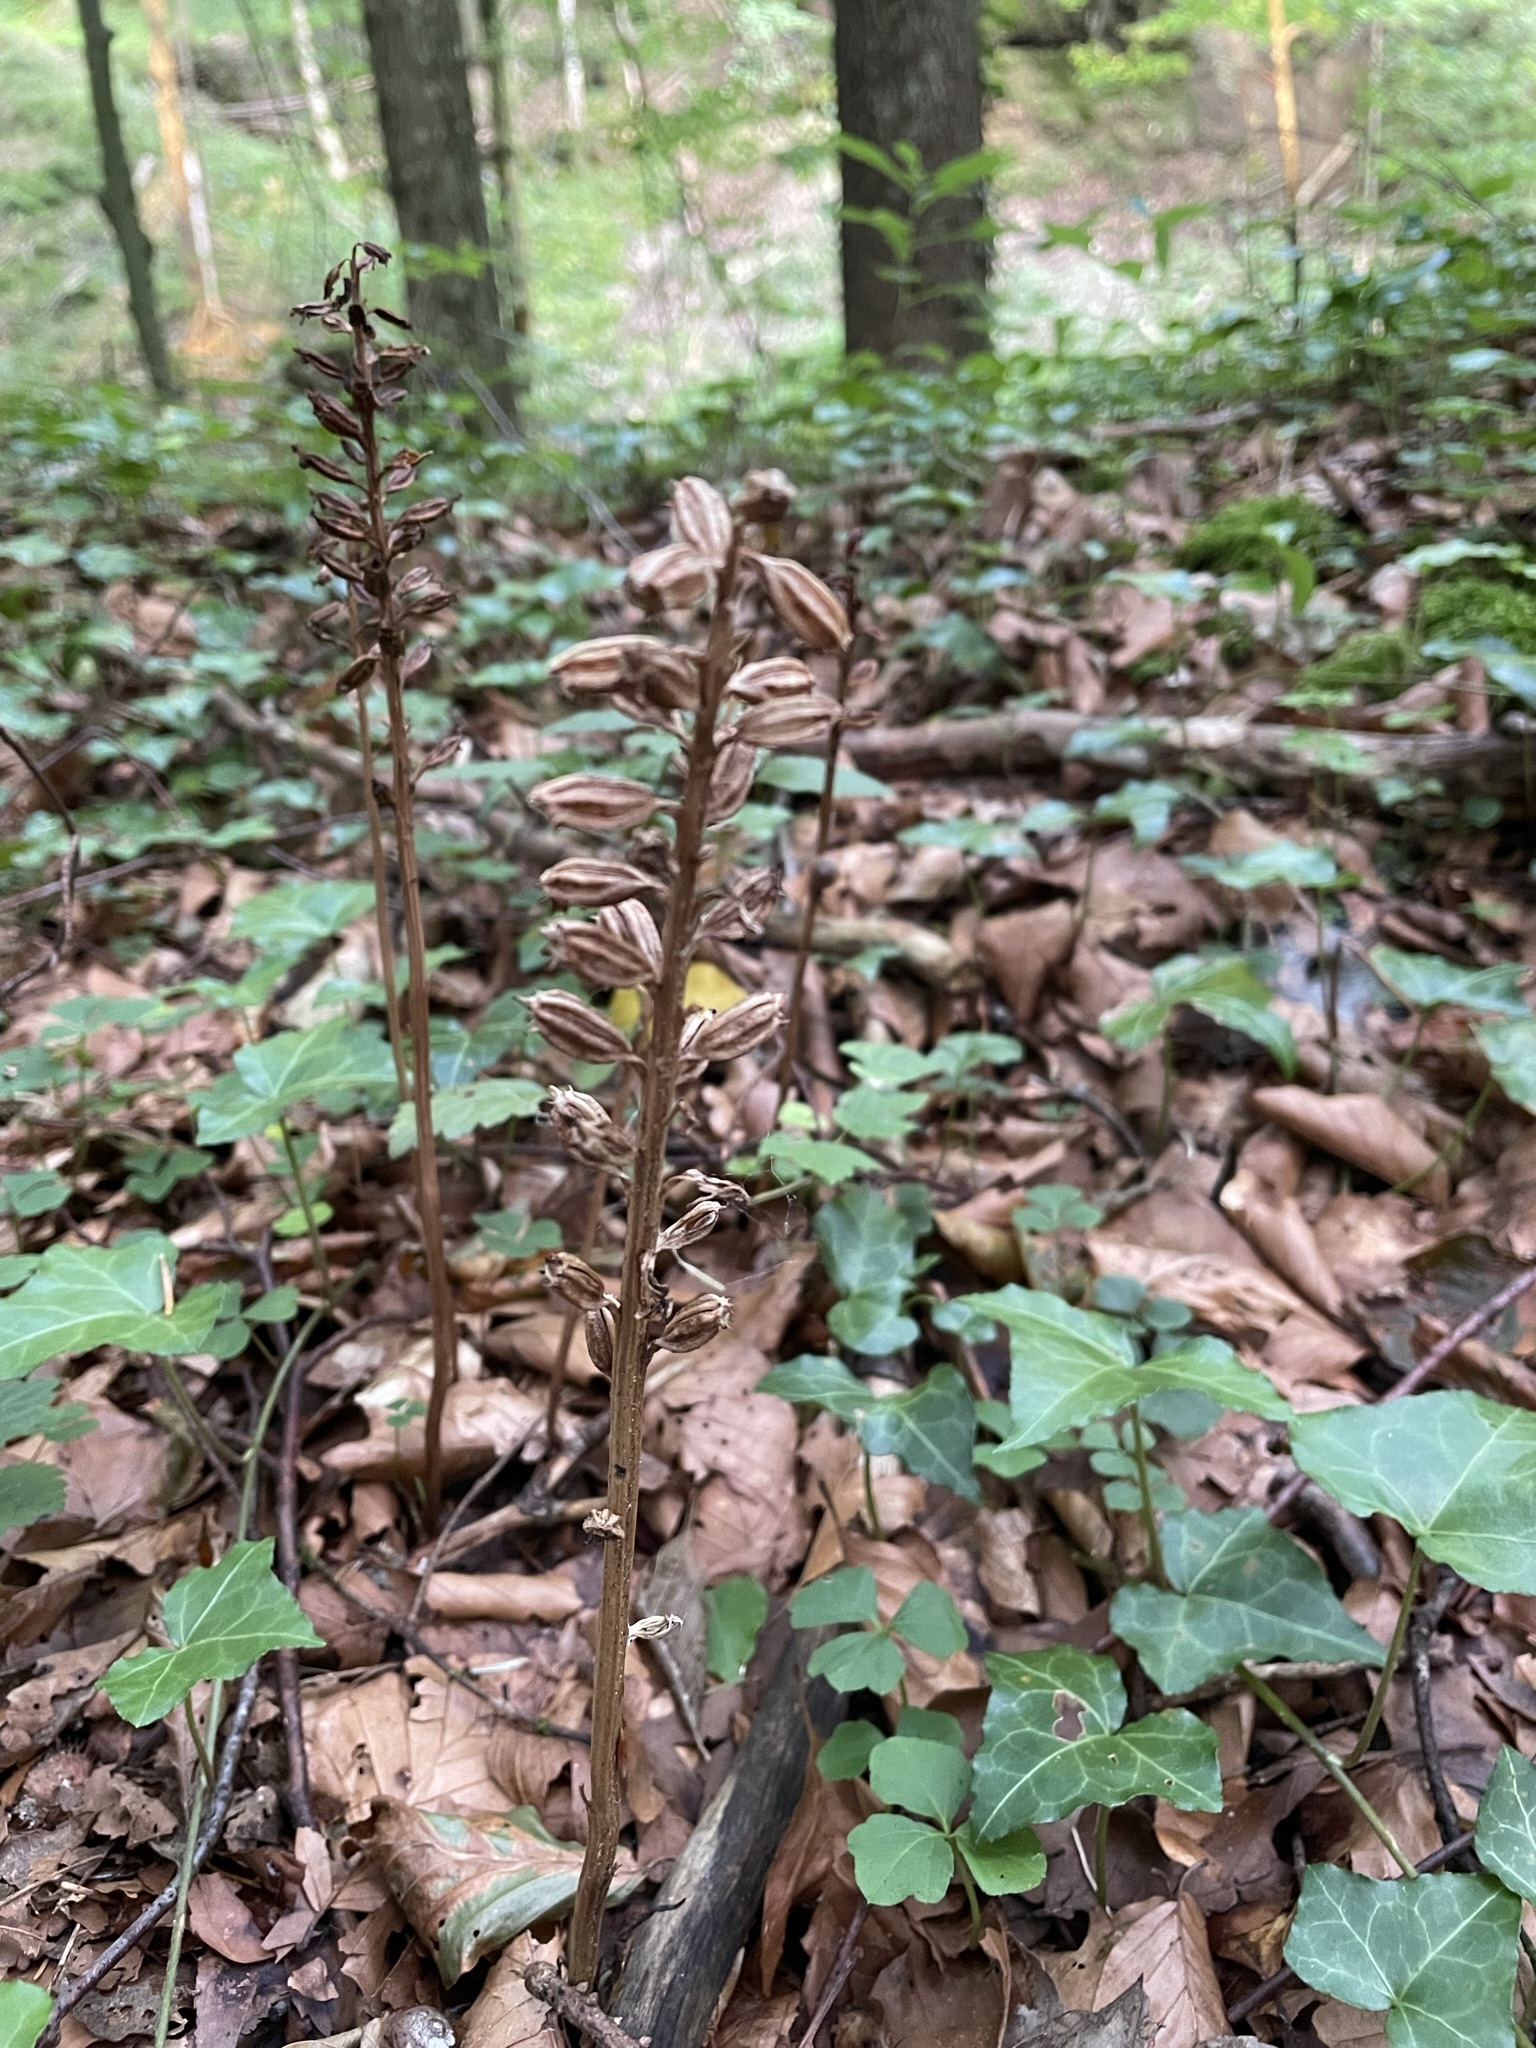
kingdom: Plantae
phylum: Tracheophyta
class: Liliopsida
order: Asparagales
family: Orchidaceae
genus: Neottia
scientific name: Neottia nidus-avis
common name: Bird's-nest orchid
